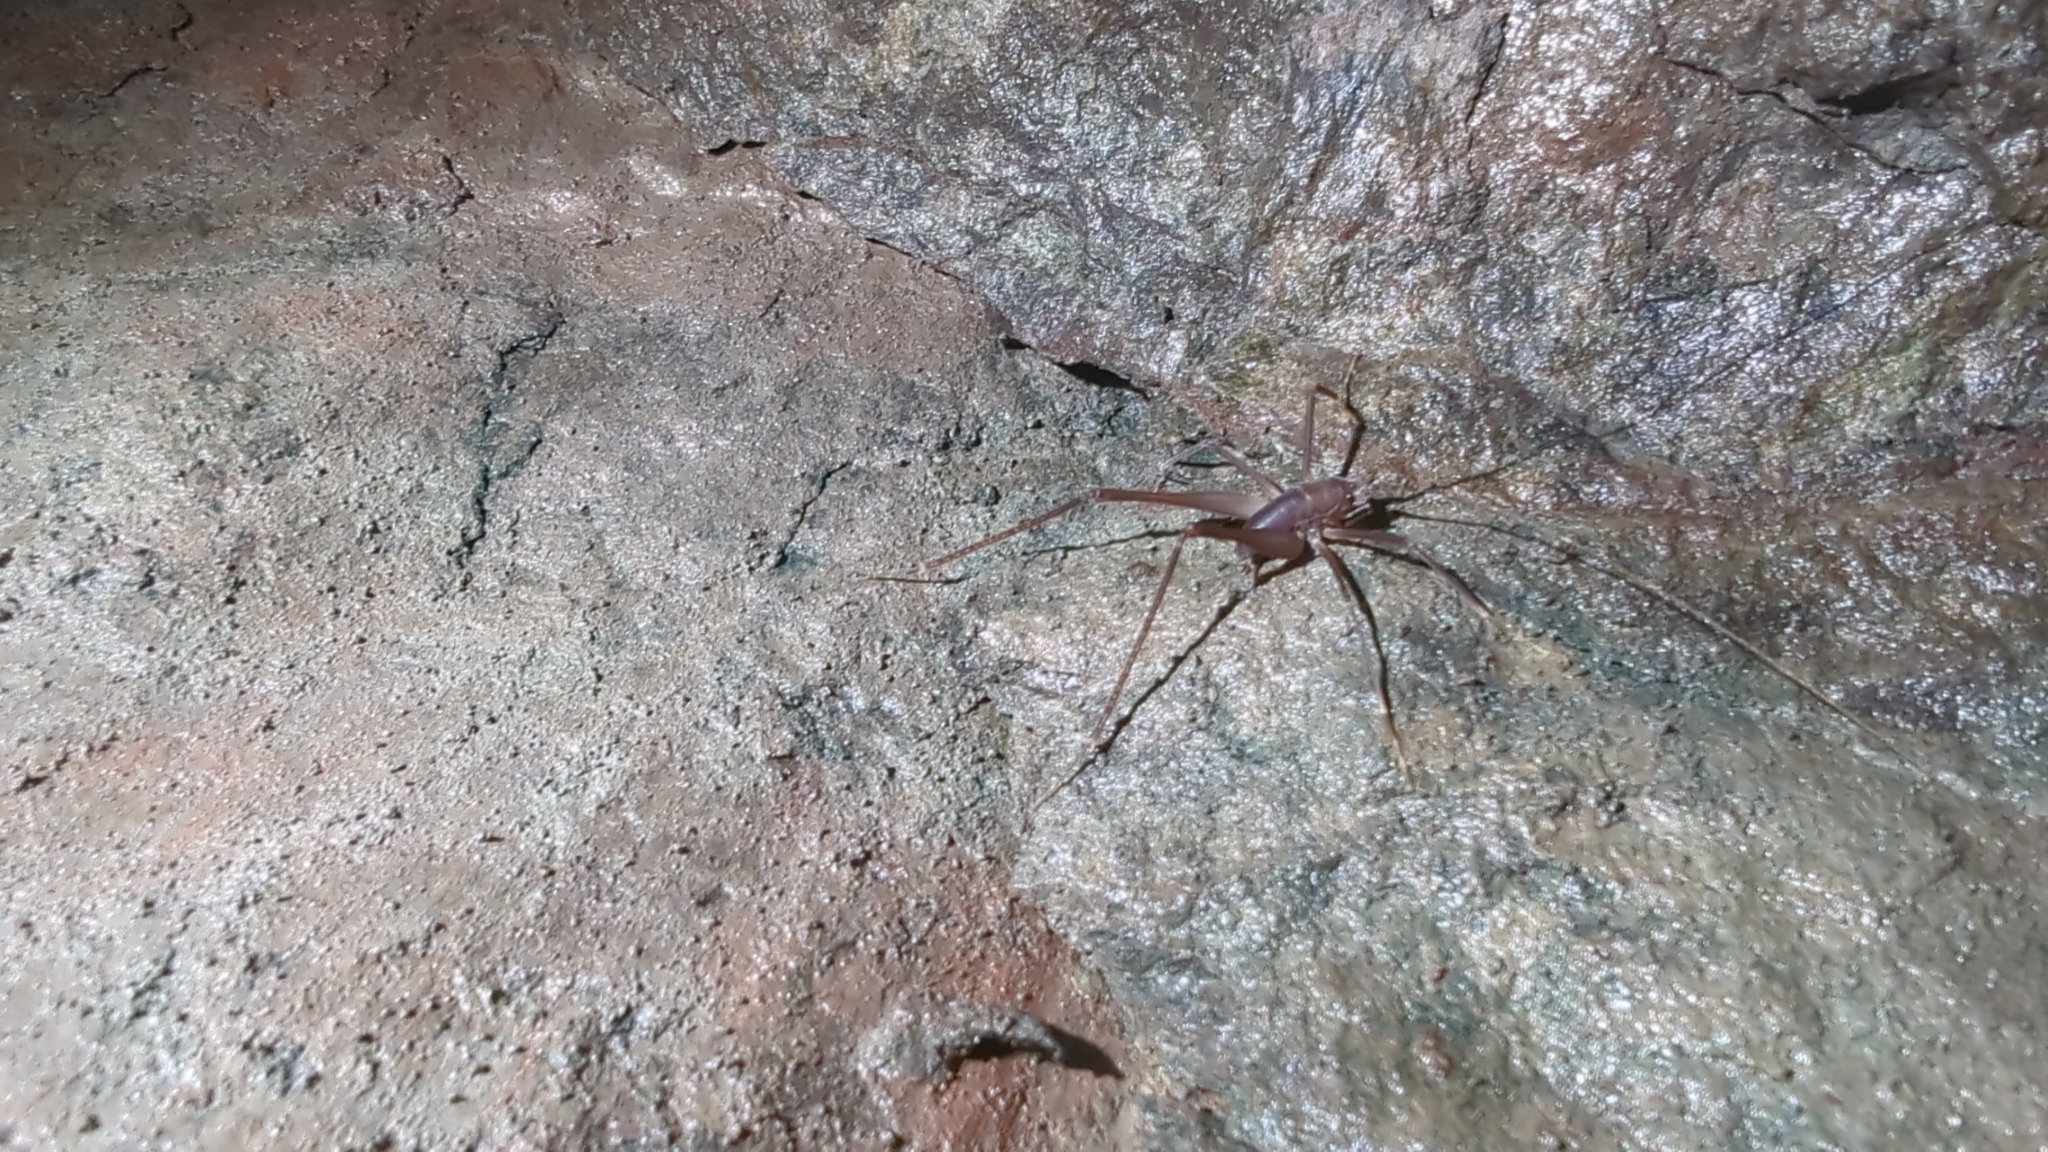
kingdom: Animalia
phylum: Arthropoda
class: Insecta
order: Orthoptera
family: Rhaphidophoridae
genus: Tropidischia
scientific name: Tropidischia xanthostoma
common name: Square-legged camel cricket
